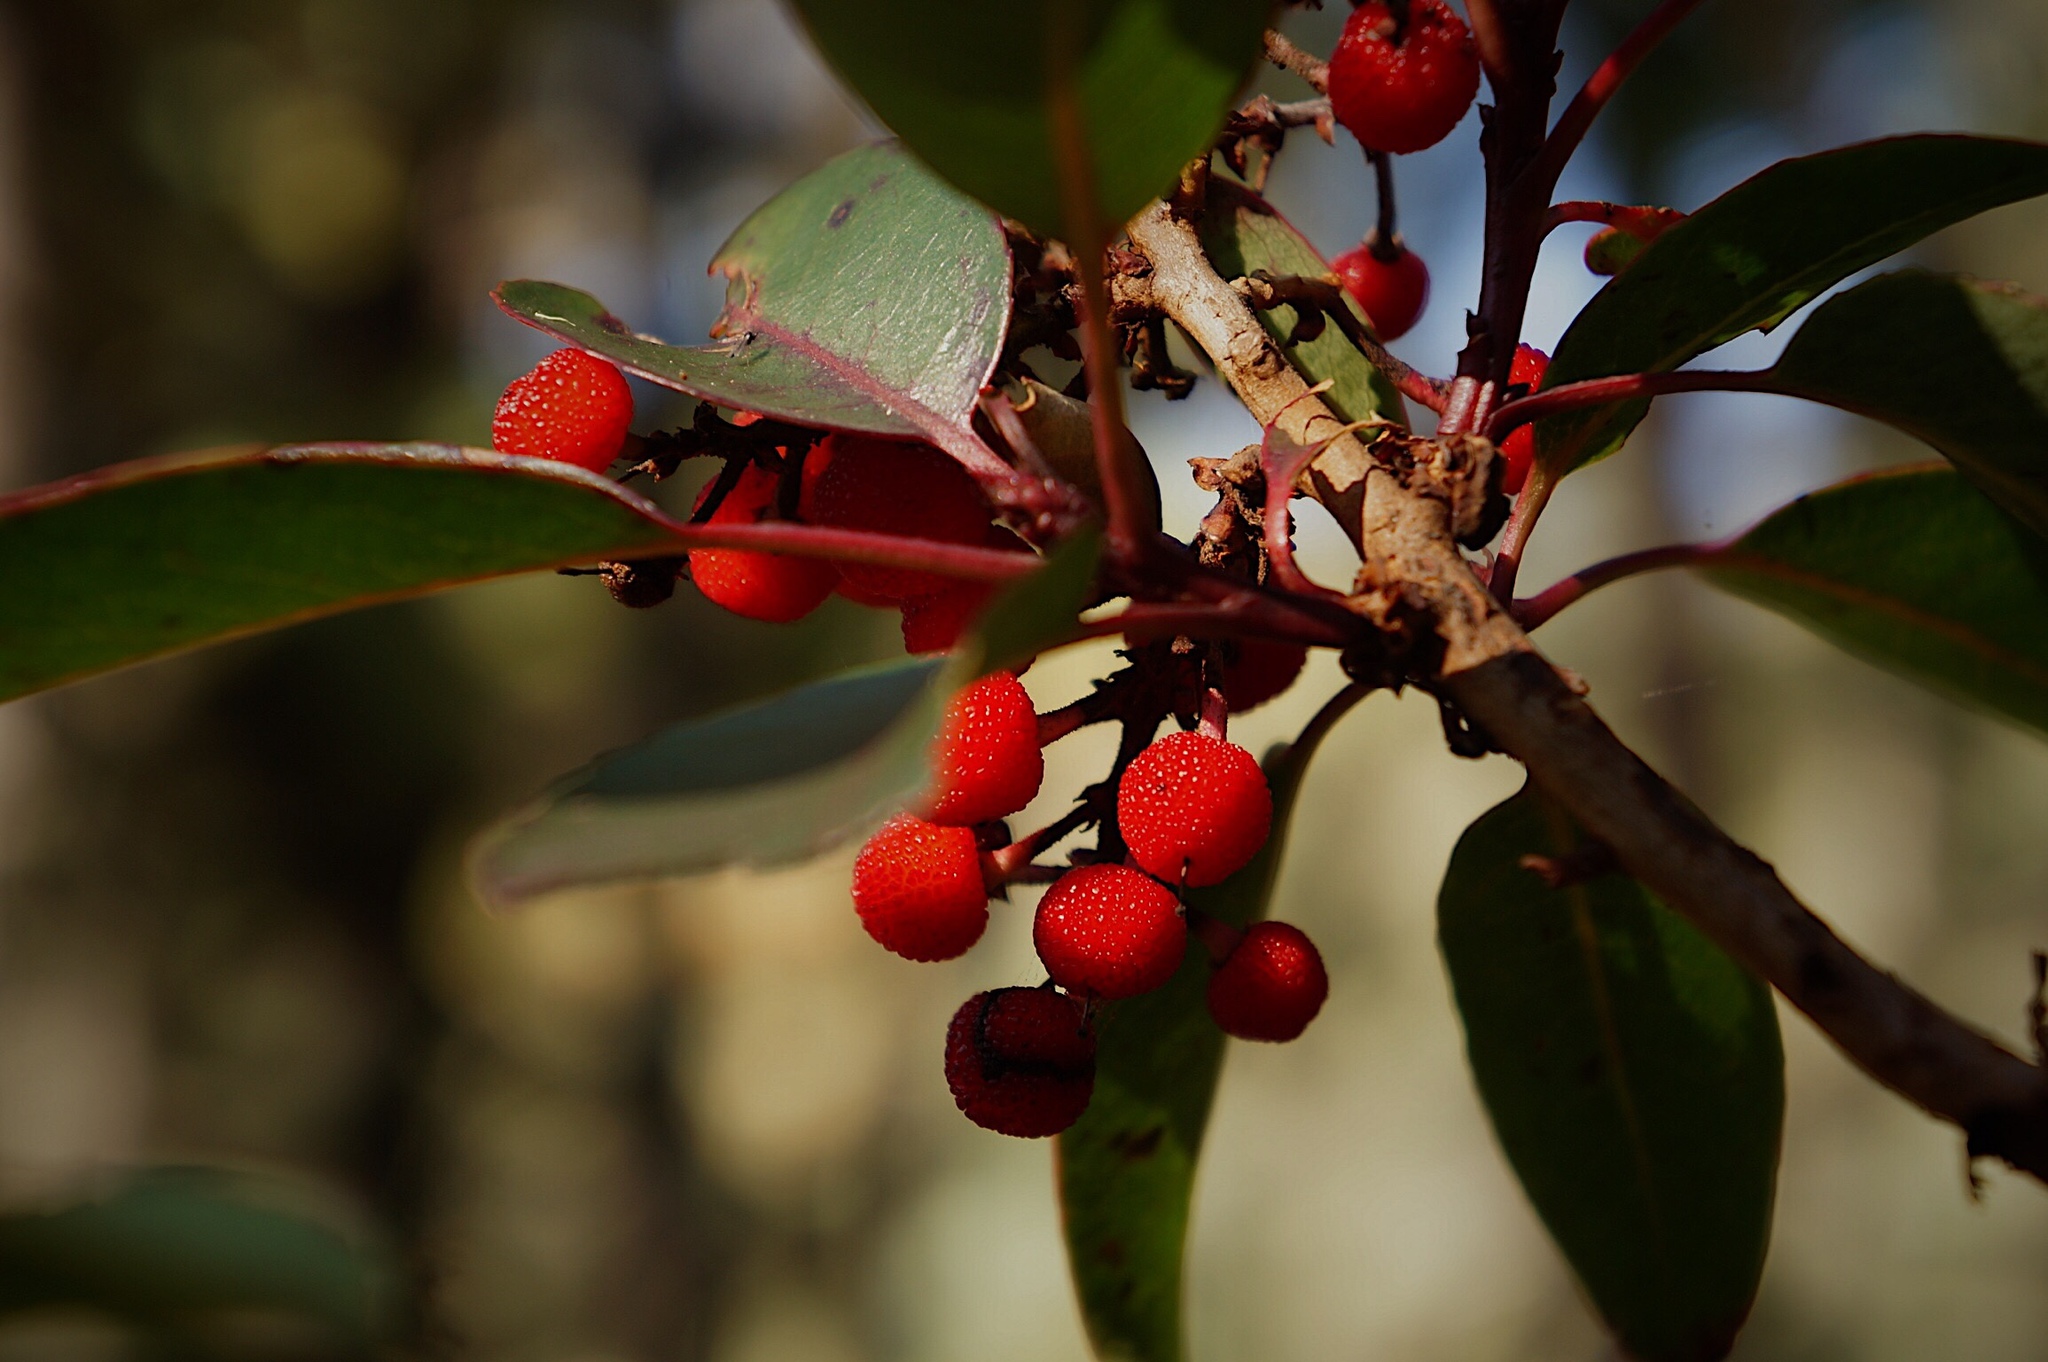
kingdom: Plantae
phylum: Tracheophyta
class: Magnoliopsida
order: Ericales
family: Ericaceae
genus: Arbutus
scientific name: Arbutus xalapensis
